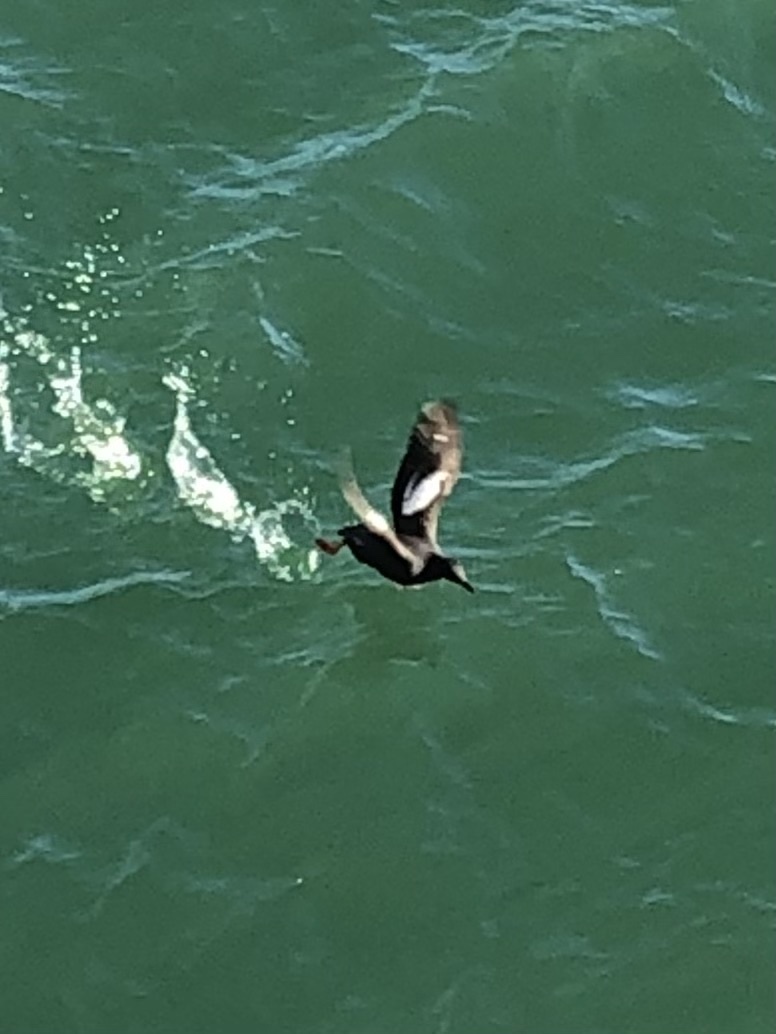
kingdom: Animalia
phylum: Chordata
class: Aves
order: Charadriiformes
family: Alcidae
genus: Cepphus
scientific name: Cepphus columba
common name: Pigeon guillemot
